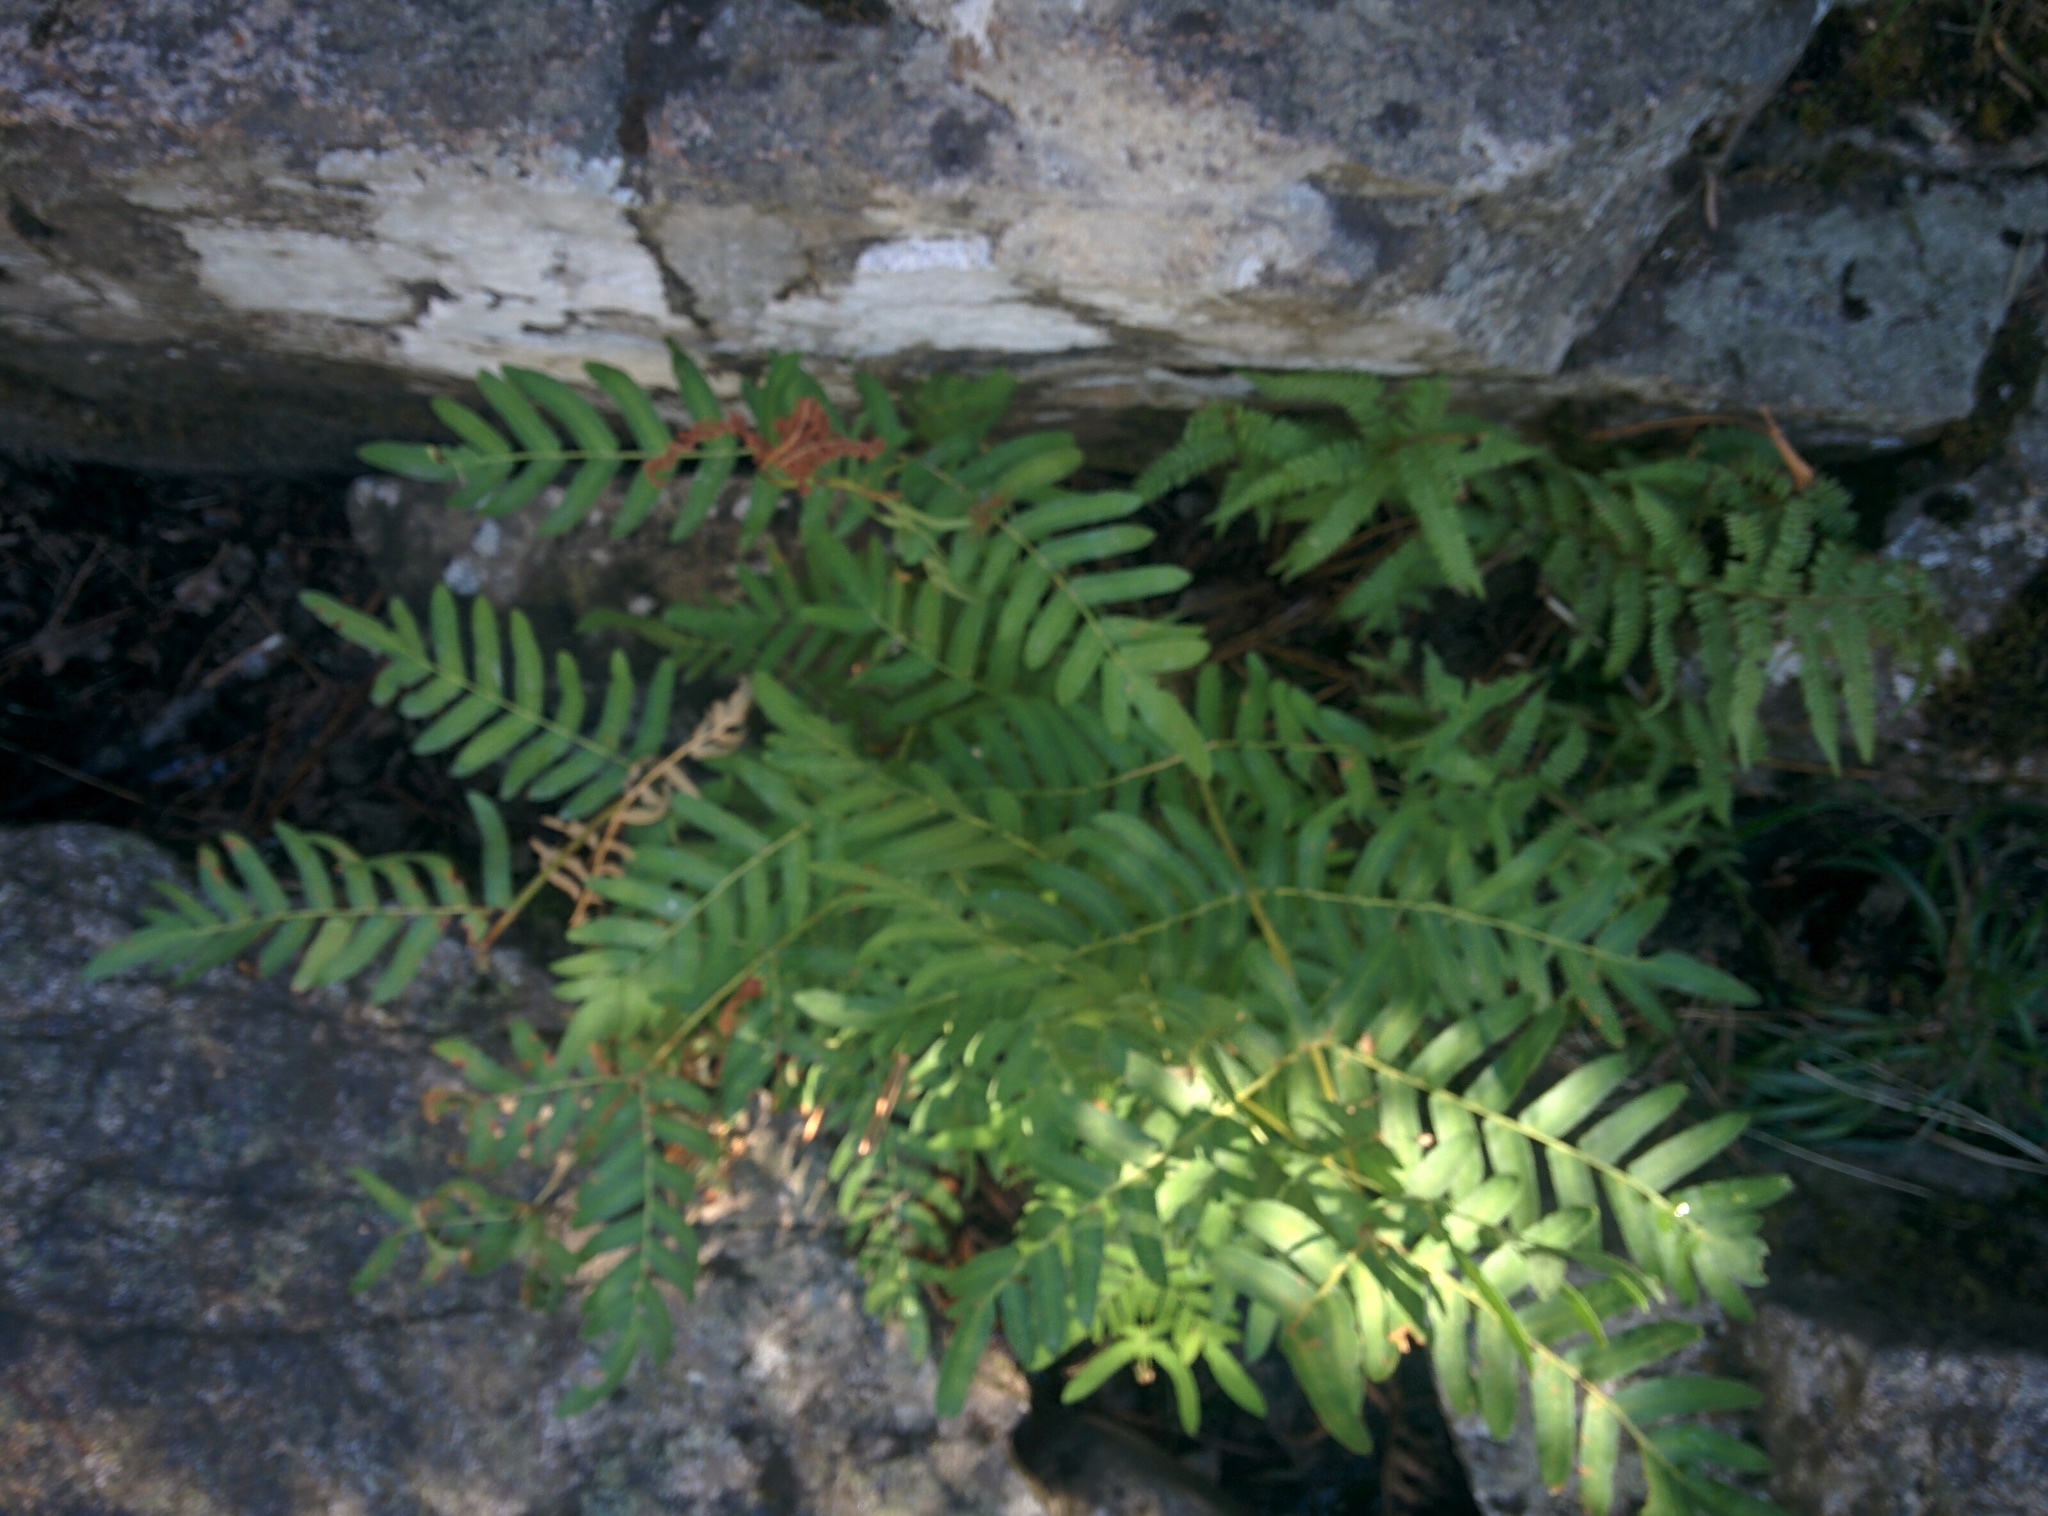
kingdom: Plantae
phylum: Tracheophyta
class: Polypodiopsida
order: Osmundales
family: Osmundaceae
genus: Osmunda
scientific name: Osmunda regalis
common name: Royal fern
